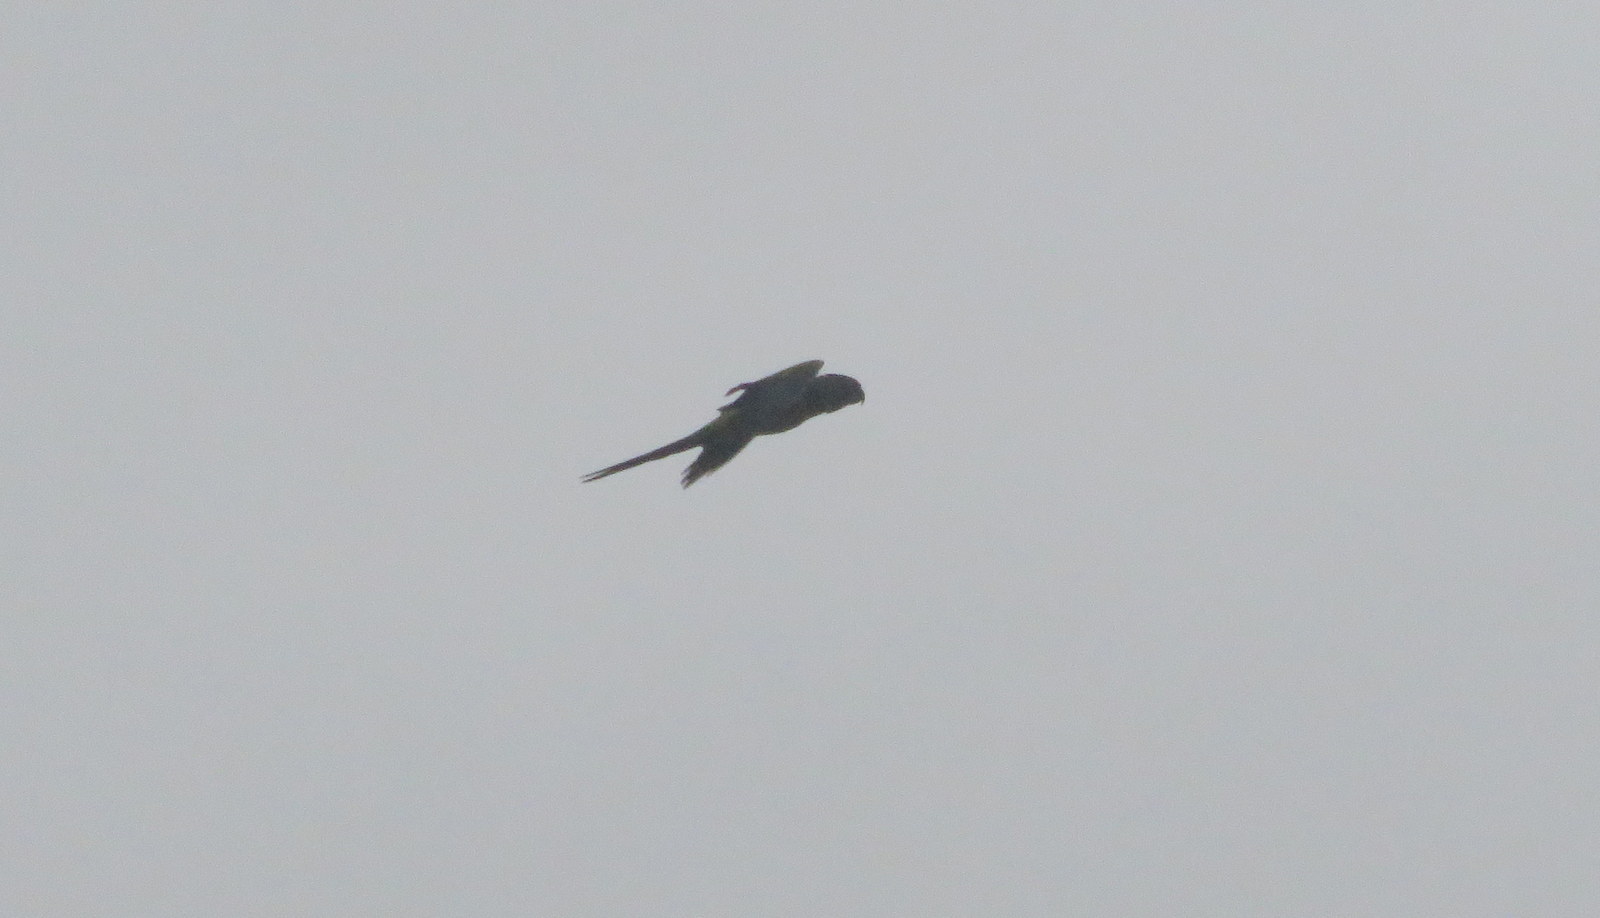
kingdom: Animalia
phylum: Chordata
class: Aves
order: Psittaciformes
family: Psittacidae
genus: Nandayus
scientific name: Nandayus nenday
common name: Nanday parakeet
